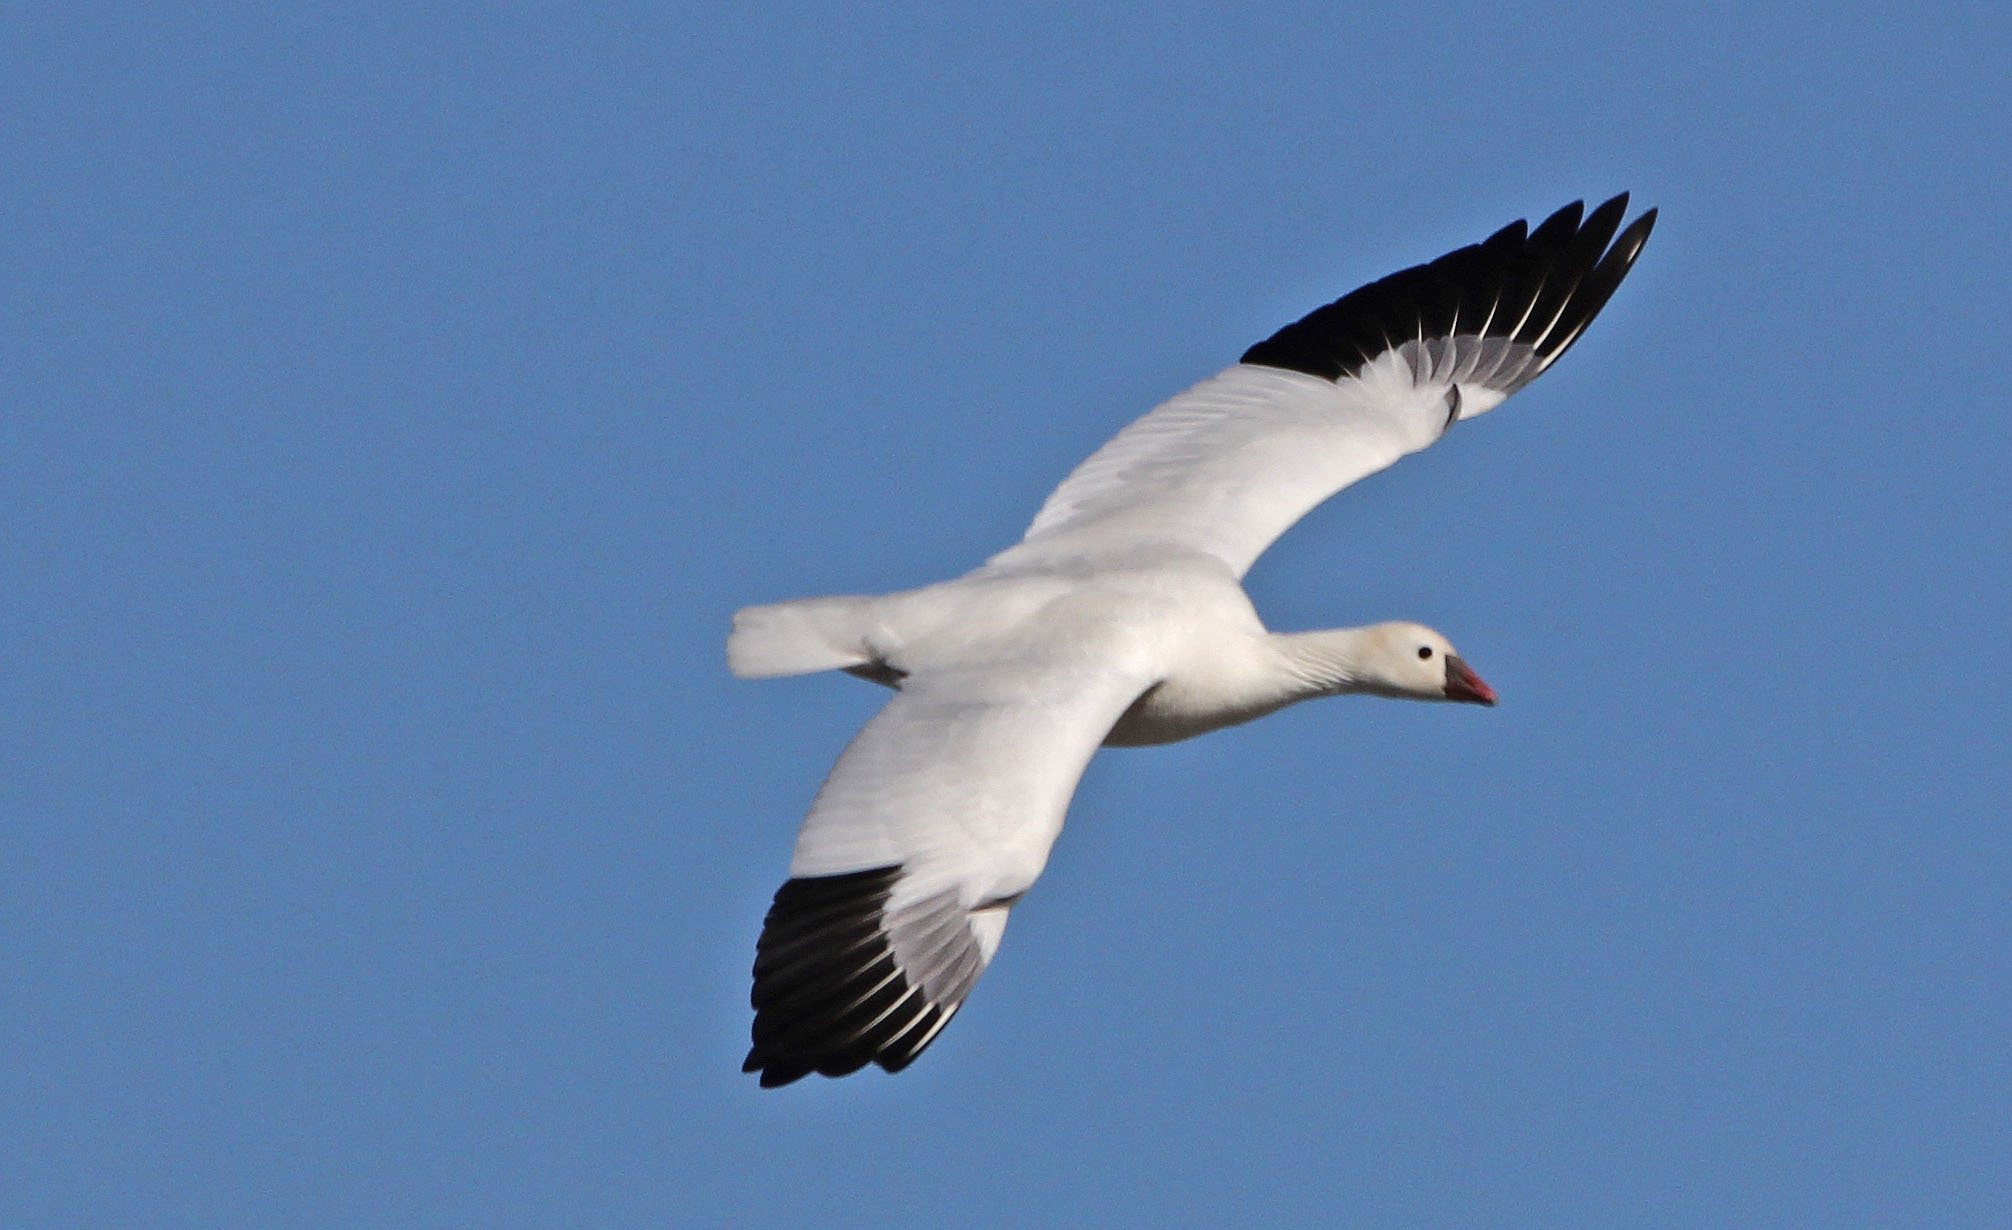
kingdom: Animalia
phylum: Chordata
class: Aves
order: Anseriformes
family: Anatidae
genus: Anser
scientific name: Anser rossii
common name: Ross's goose
